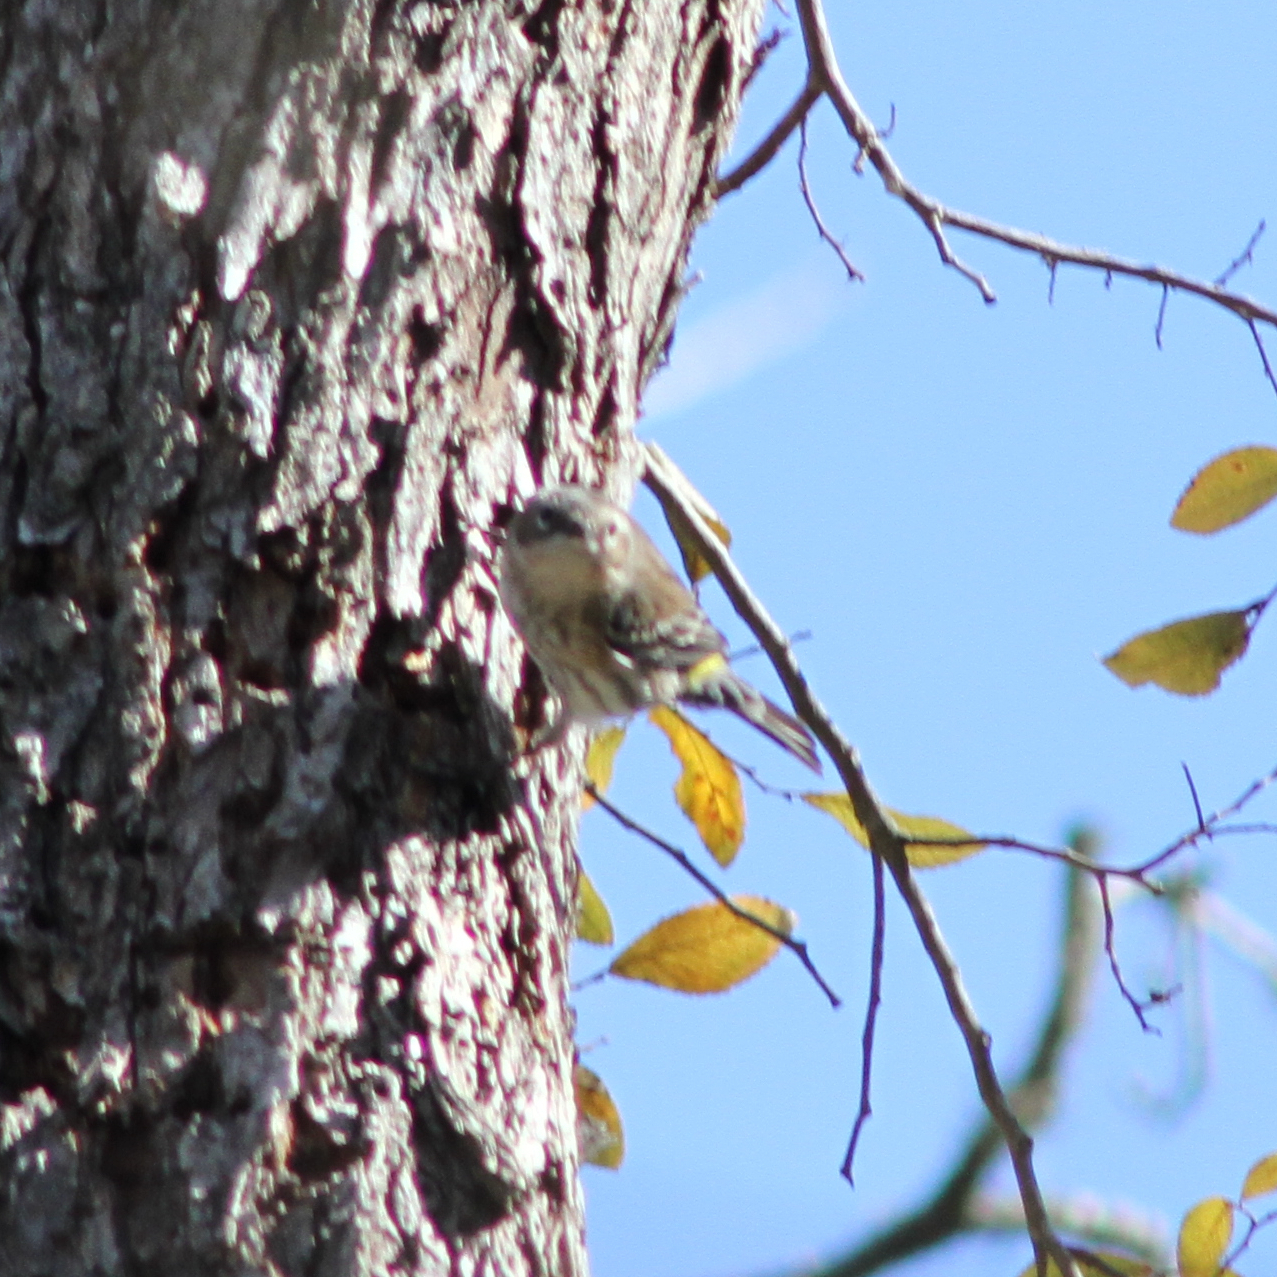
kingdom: Animalia
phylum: Chordata
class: Aves
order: Passeriformes
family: Parulidae
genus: Setophaga
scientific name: Setophaga coronata
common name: Myrtle warbler
